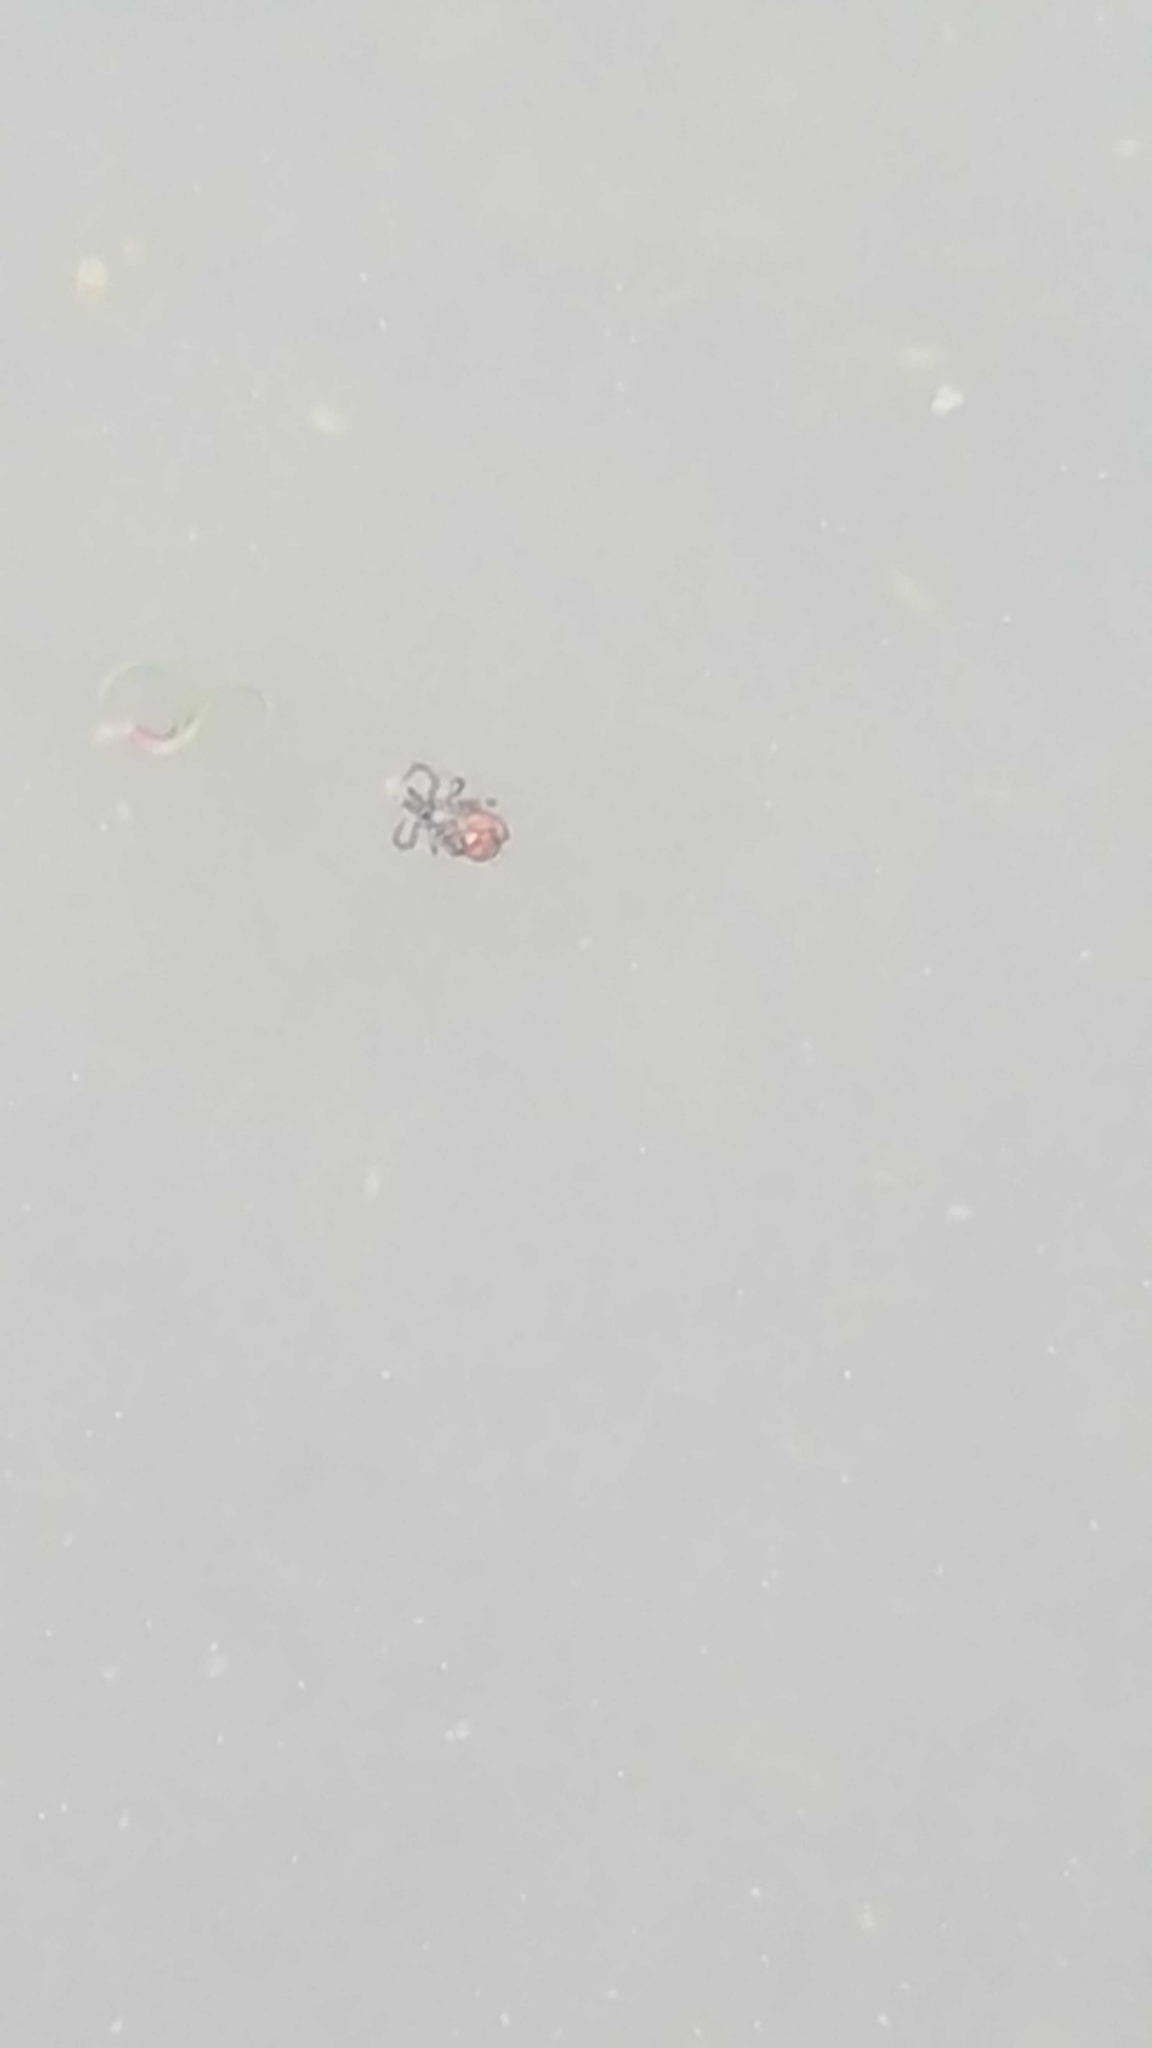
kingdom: Animalia
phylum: Arthropoda
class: Arachnida
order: Ixodida
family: Ixodidae
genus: Ixodes
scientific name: Ixodes scapularis
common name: Black legged tick
